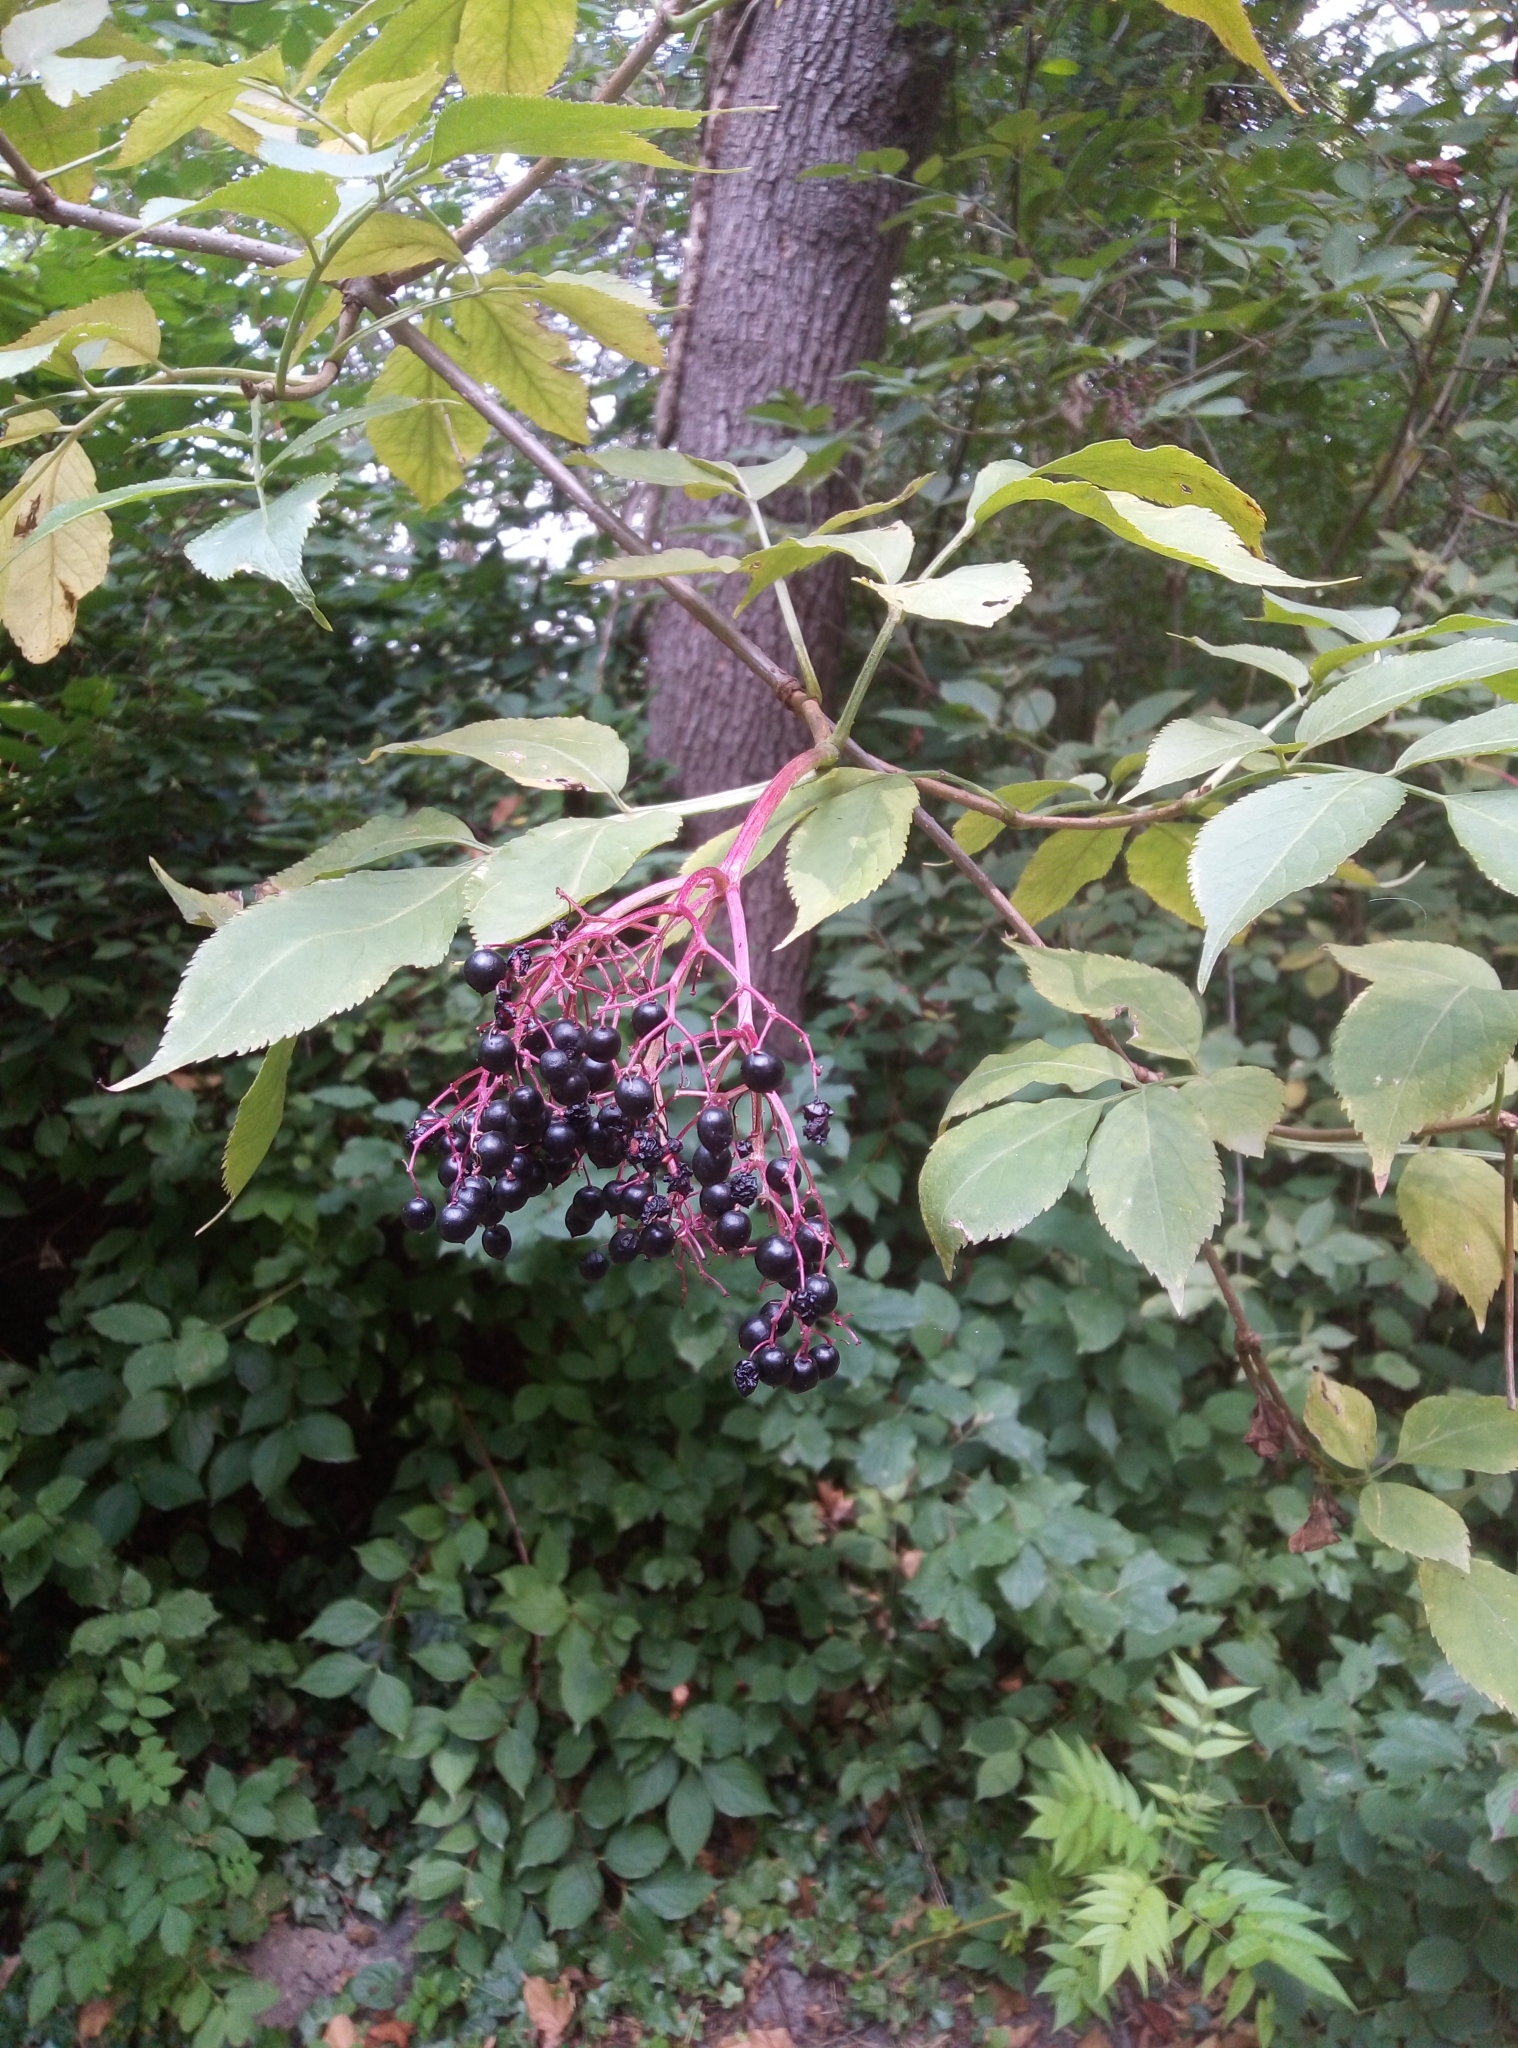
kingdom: Plantae
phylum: Tracheophyta
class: Magnoliopsida
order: Dipsacales
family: Viburnaceae
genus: Sambucus
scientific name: Sambucus nigra
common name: Elder
